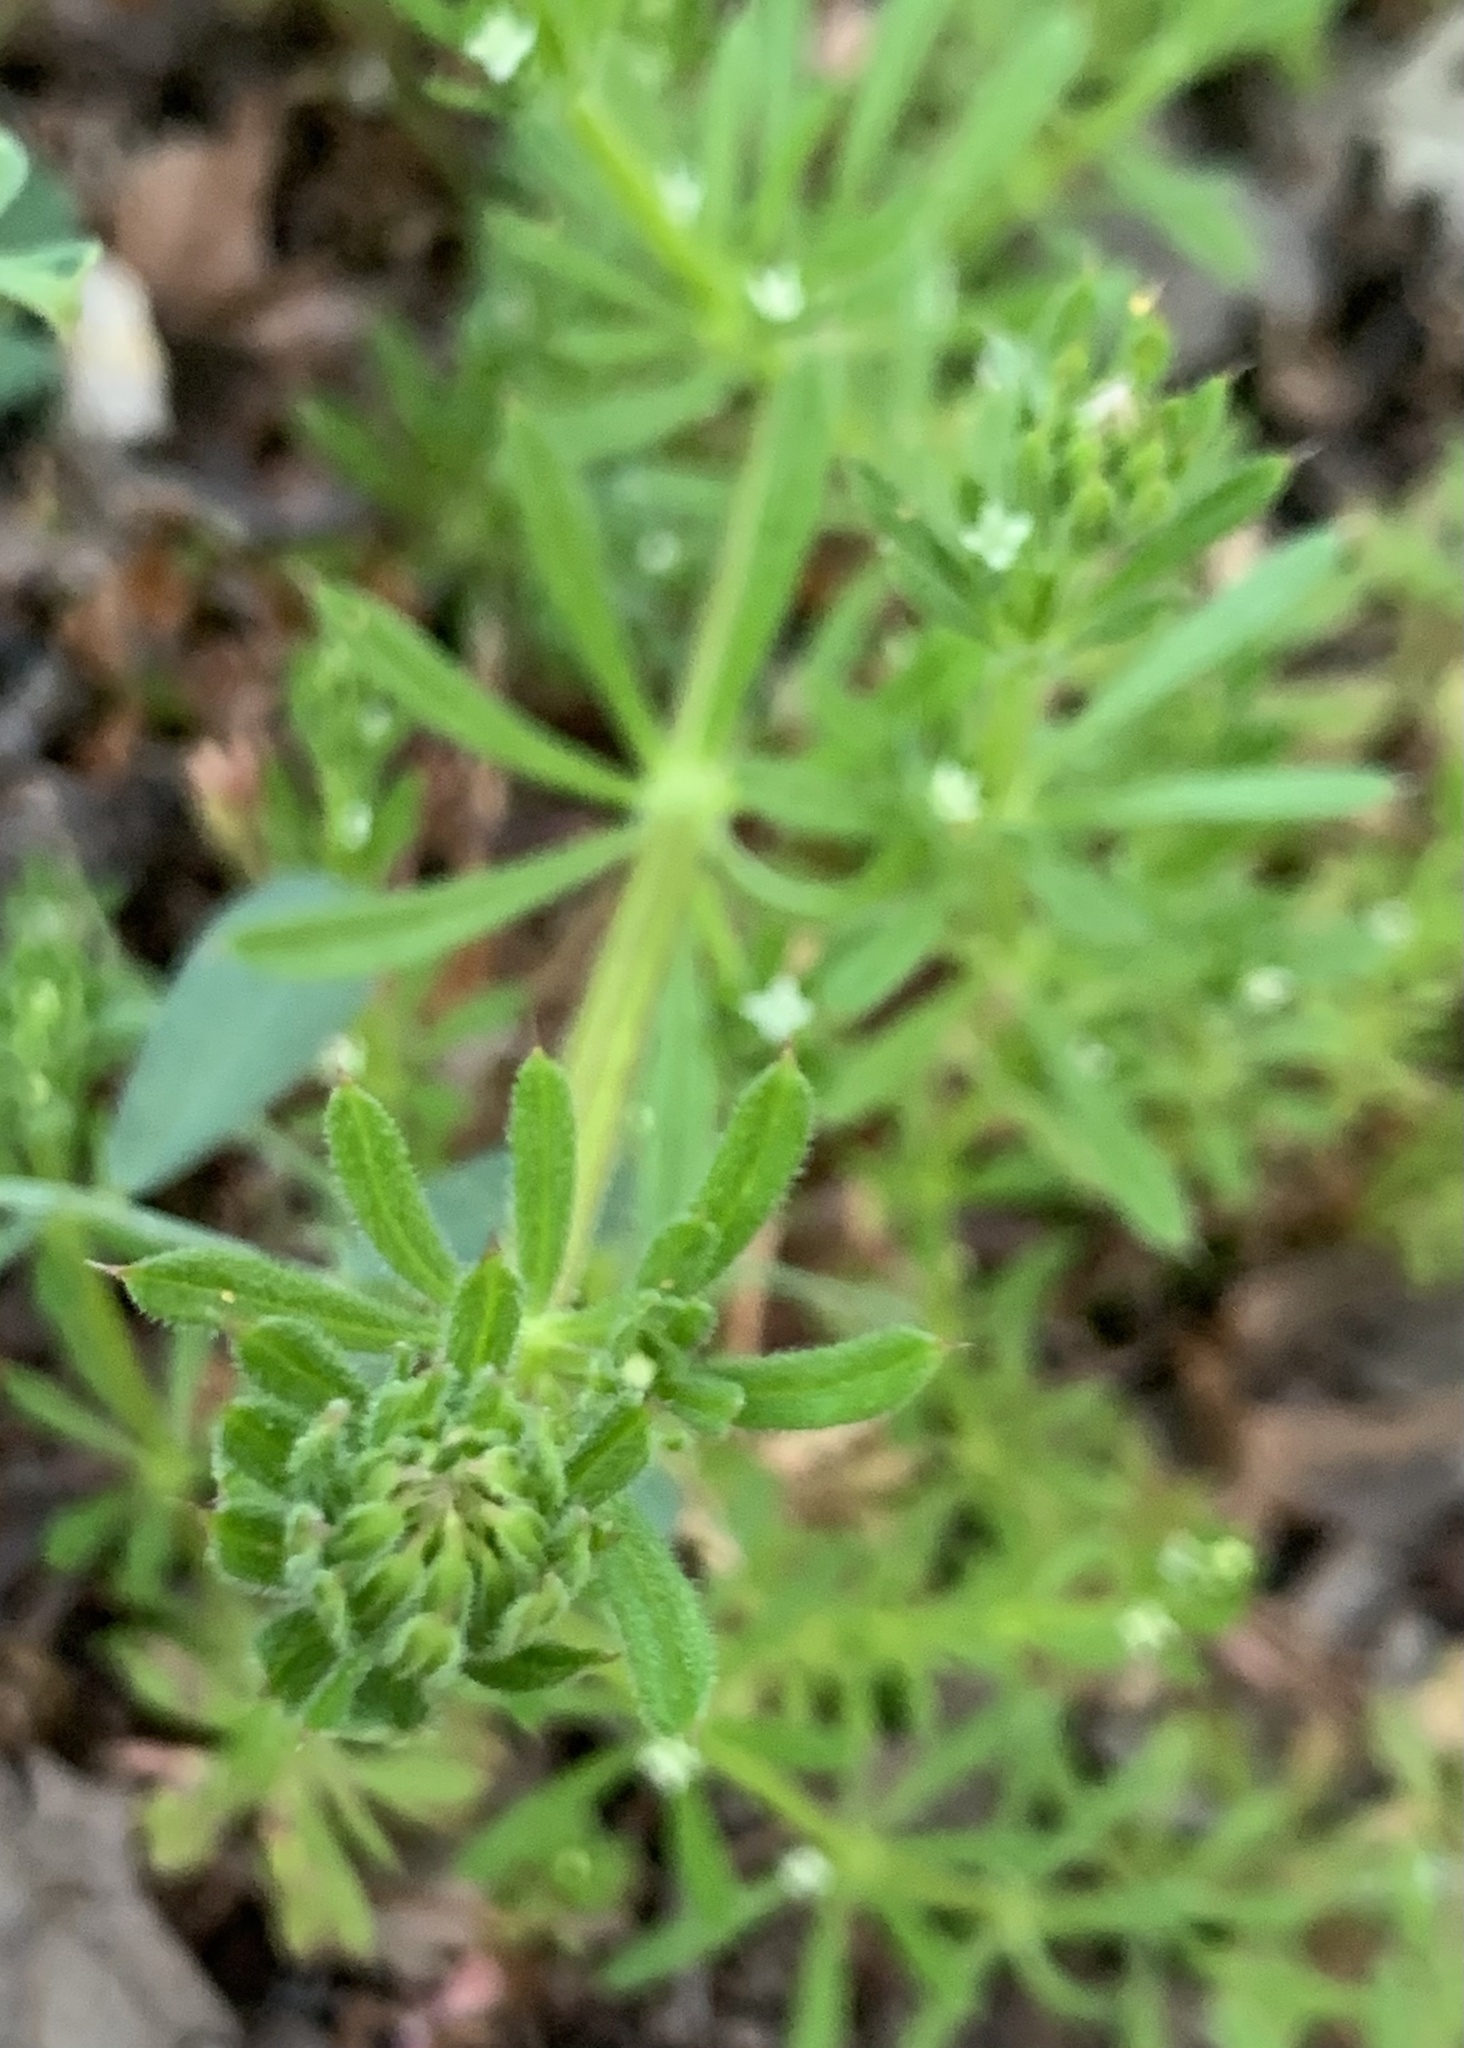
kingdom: Plantae
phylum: Tracheophyta
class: Magnoliopsida
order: Gentianales
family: Rubiaceae
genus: Galium
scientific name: Galium aparine
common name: Cleavers
